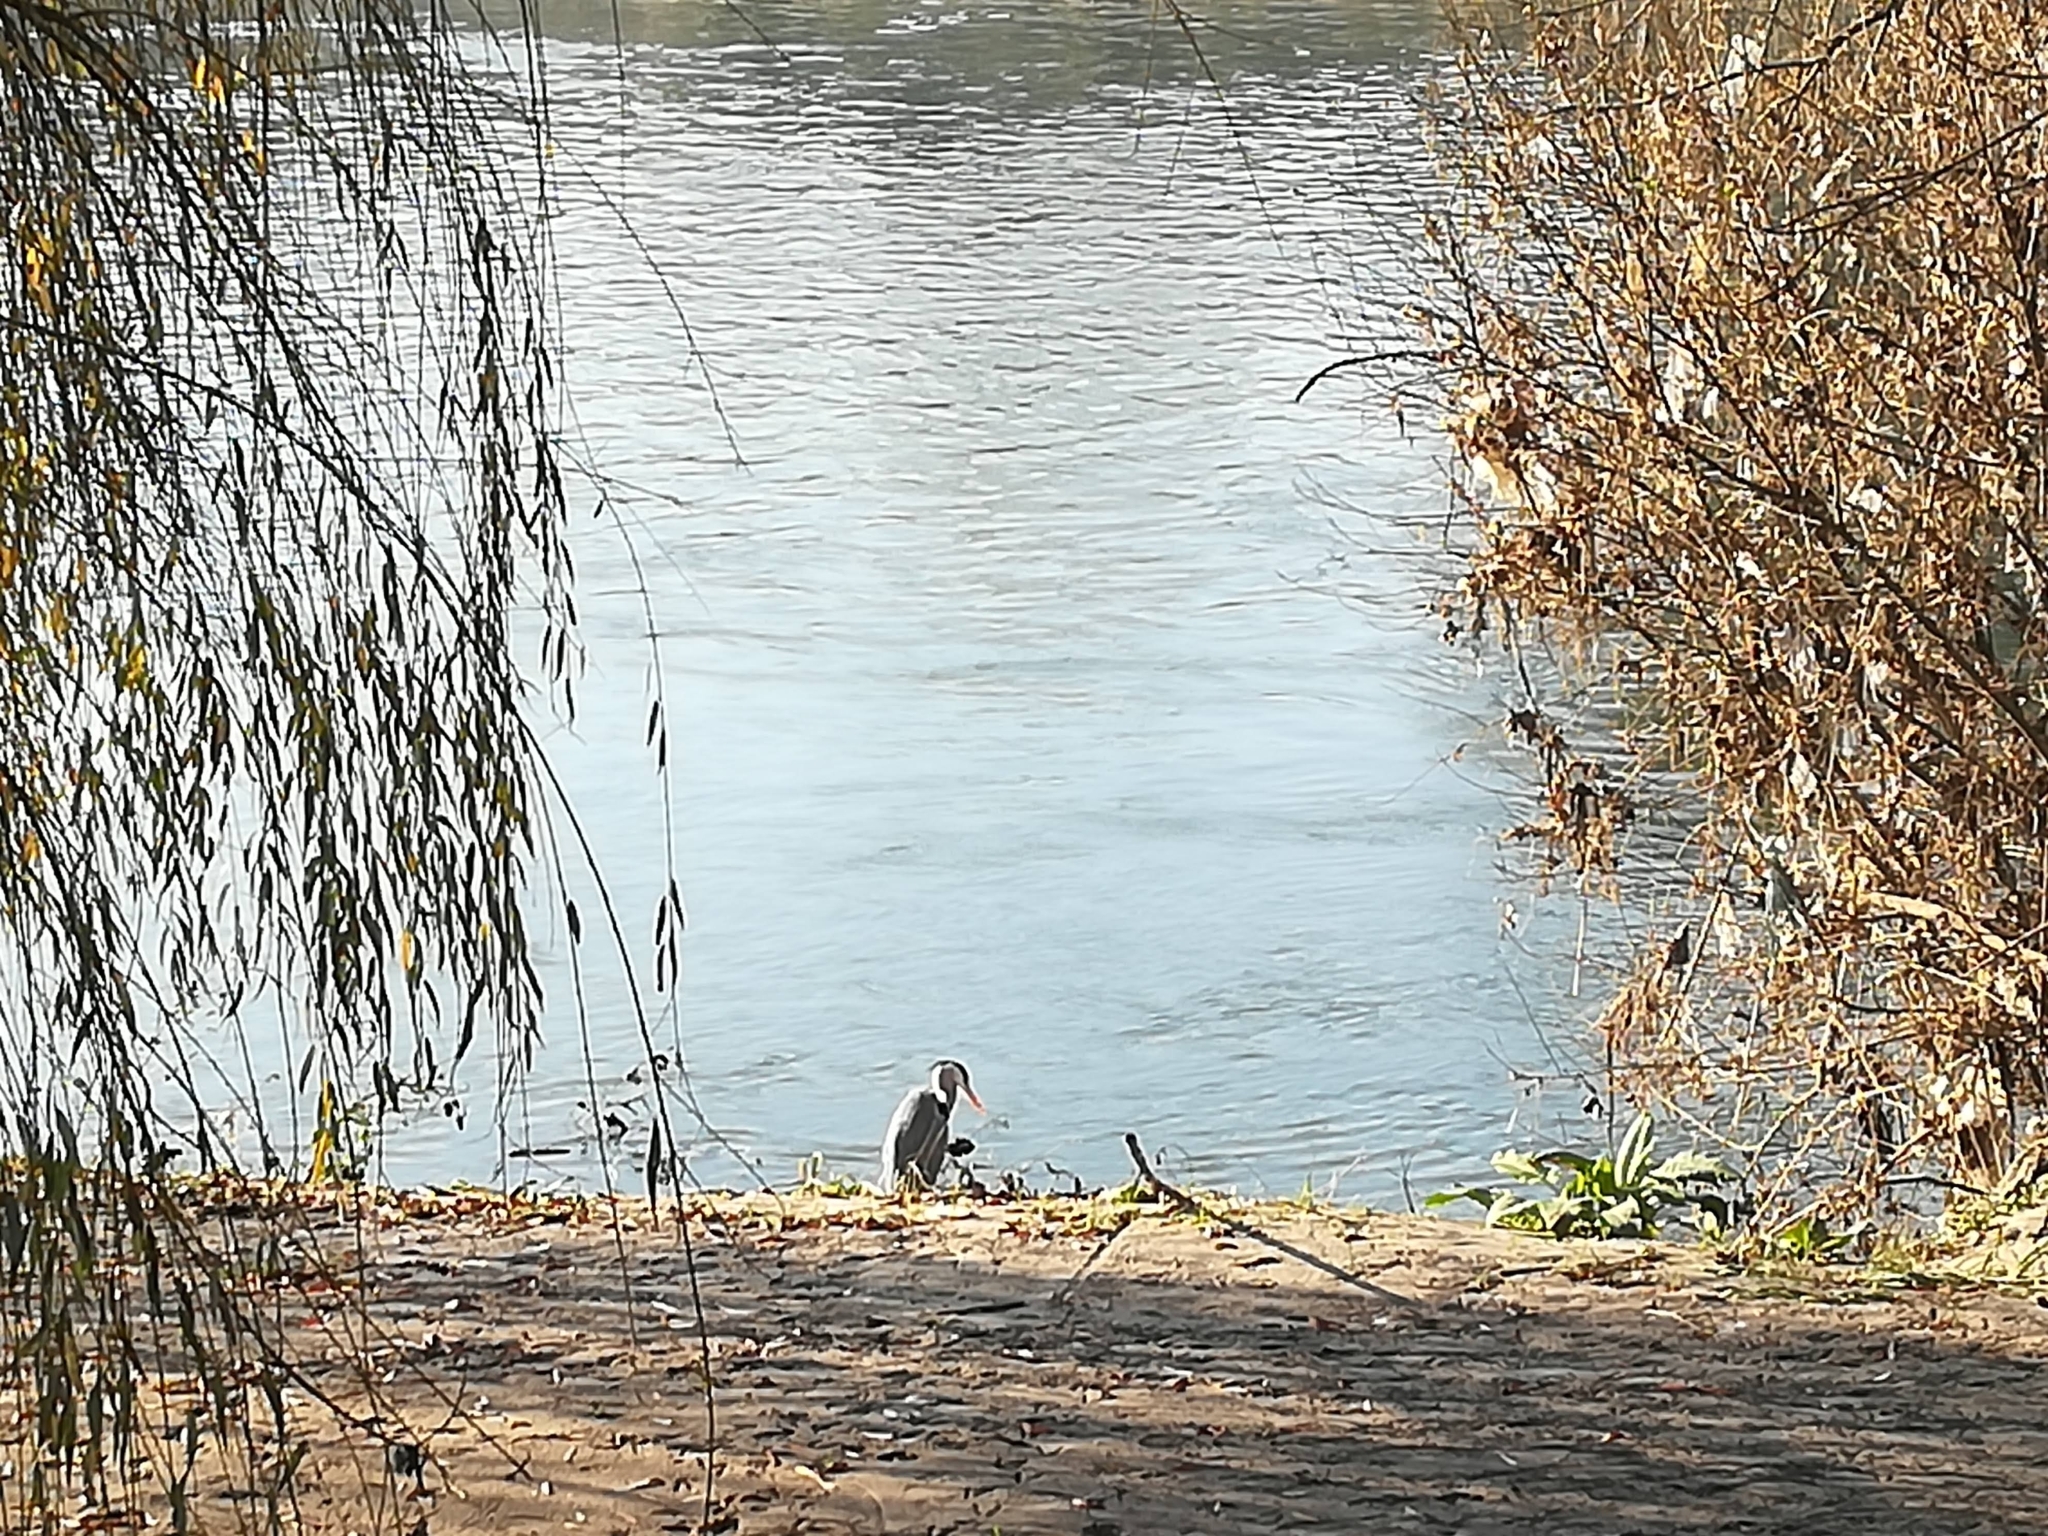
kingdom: Animalia
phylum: Chordata
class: Aves
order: Pelecaniformes
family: Ardeidae
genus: Ardea
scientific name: Ardea cinerea
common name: Grey heron
